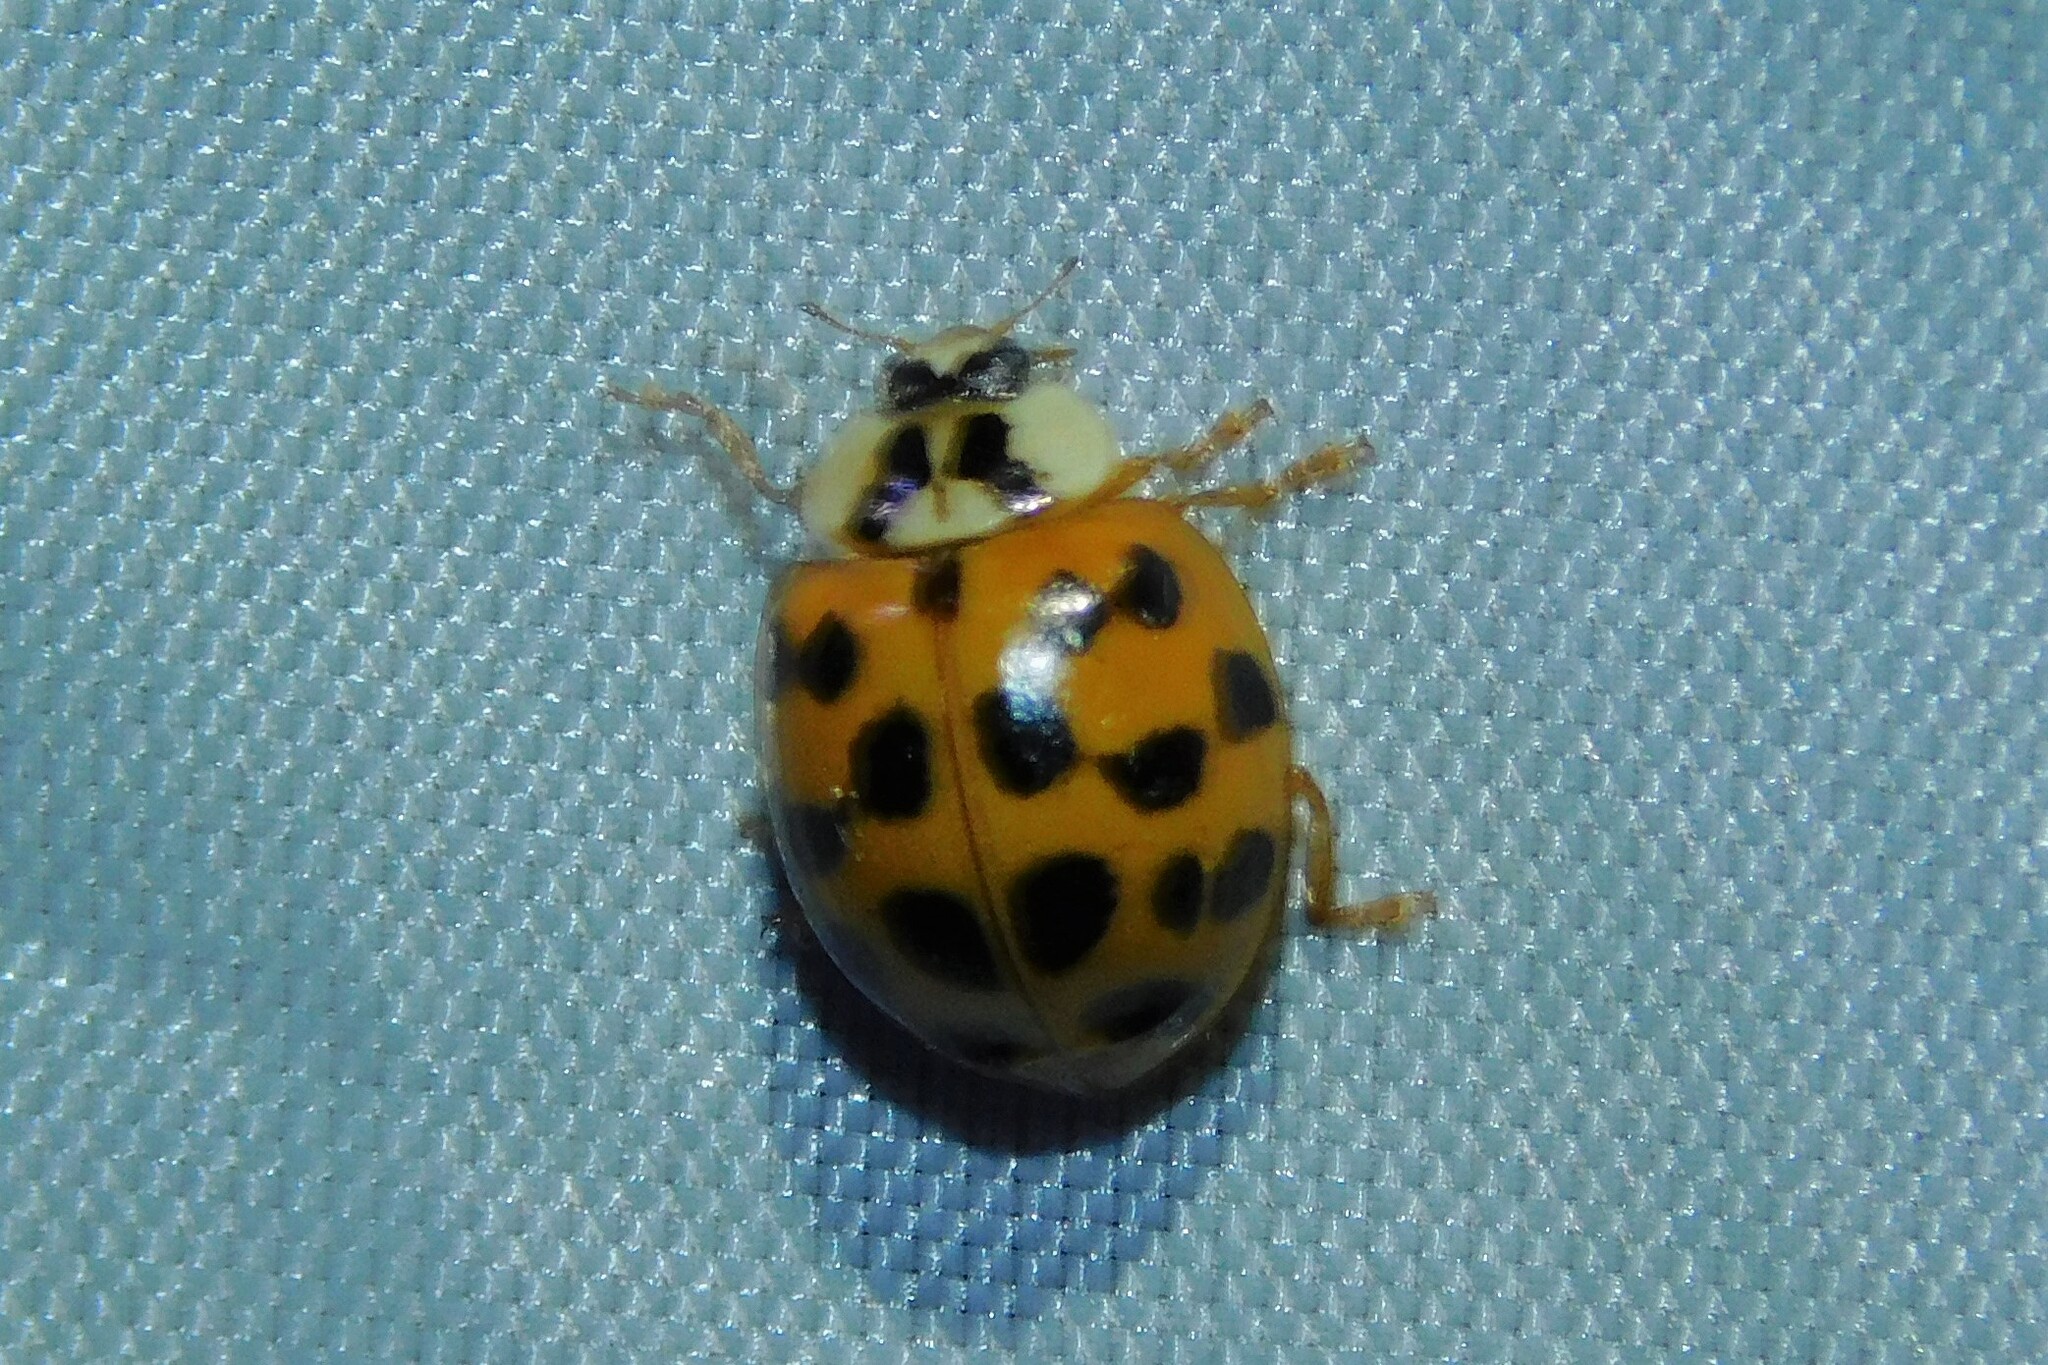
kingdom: Animalia
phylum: Arthropoda
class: Insecta
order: Coleoptera
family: Coccinellidae
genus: Harmonia
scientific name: Harmonia axyridis
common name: Harlequin ladybird
